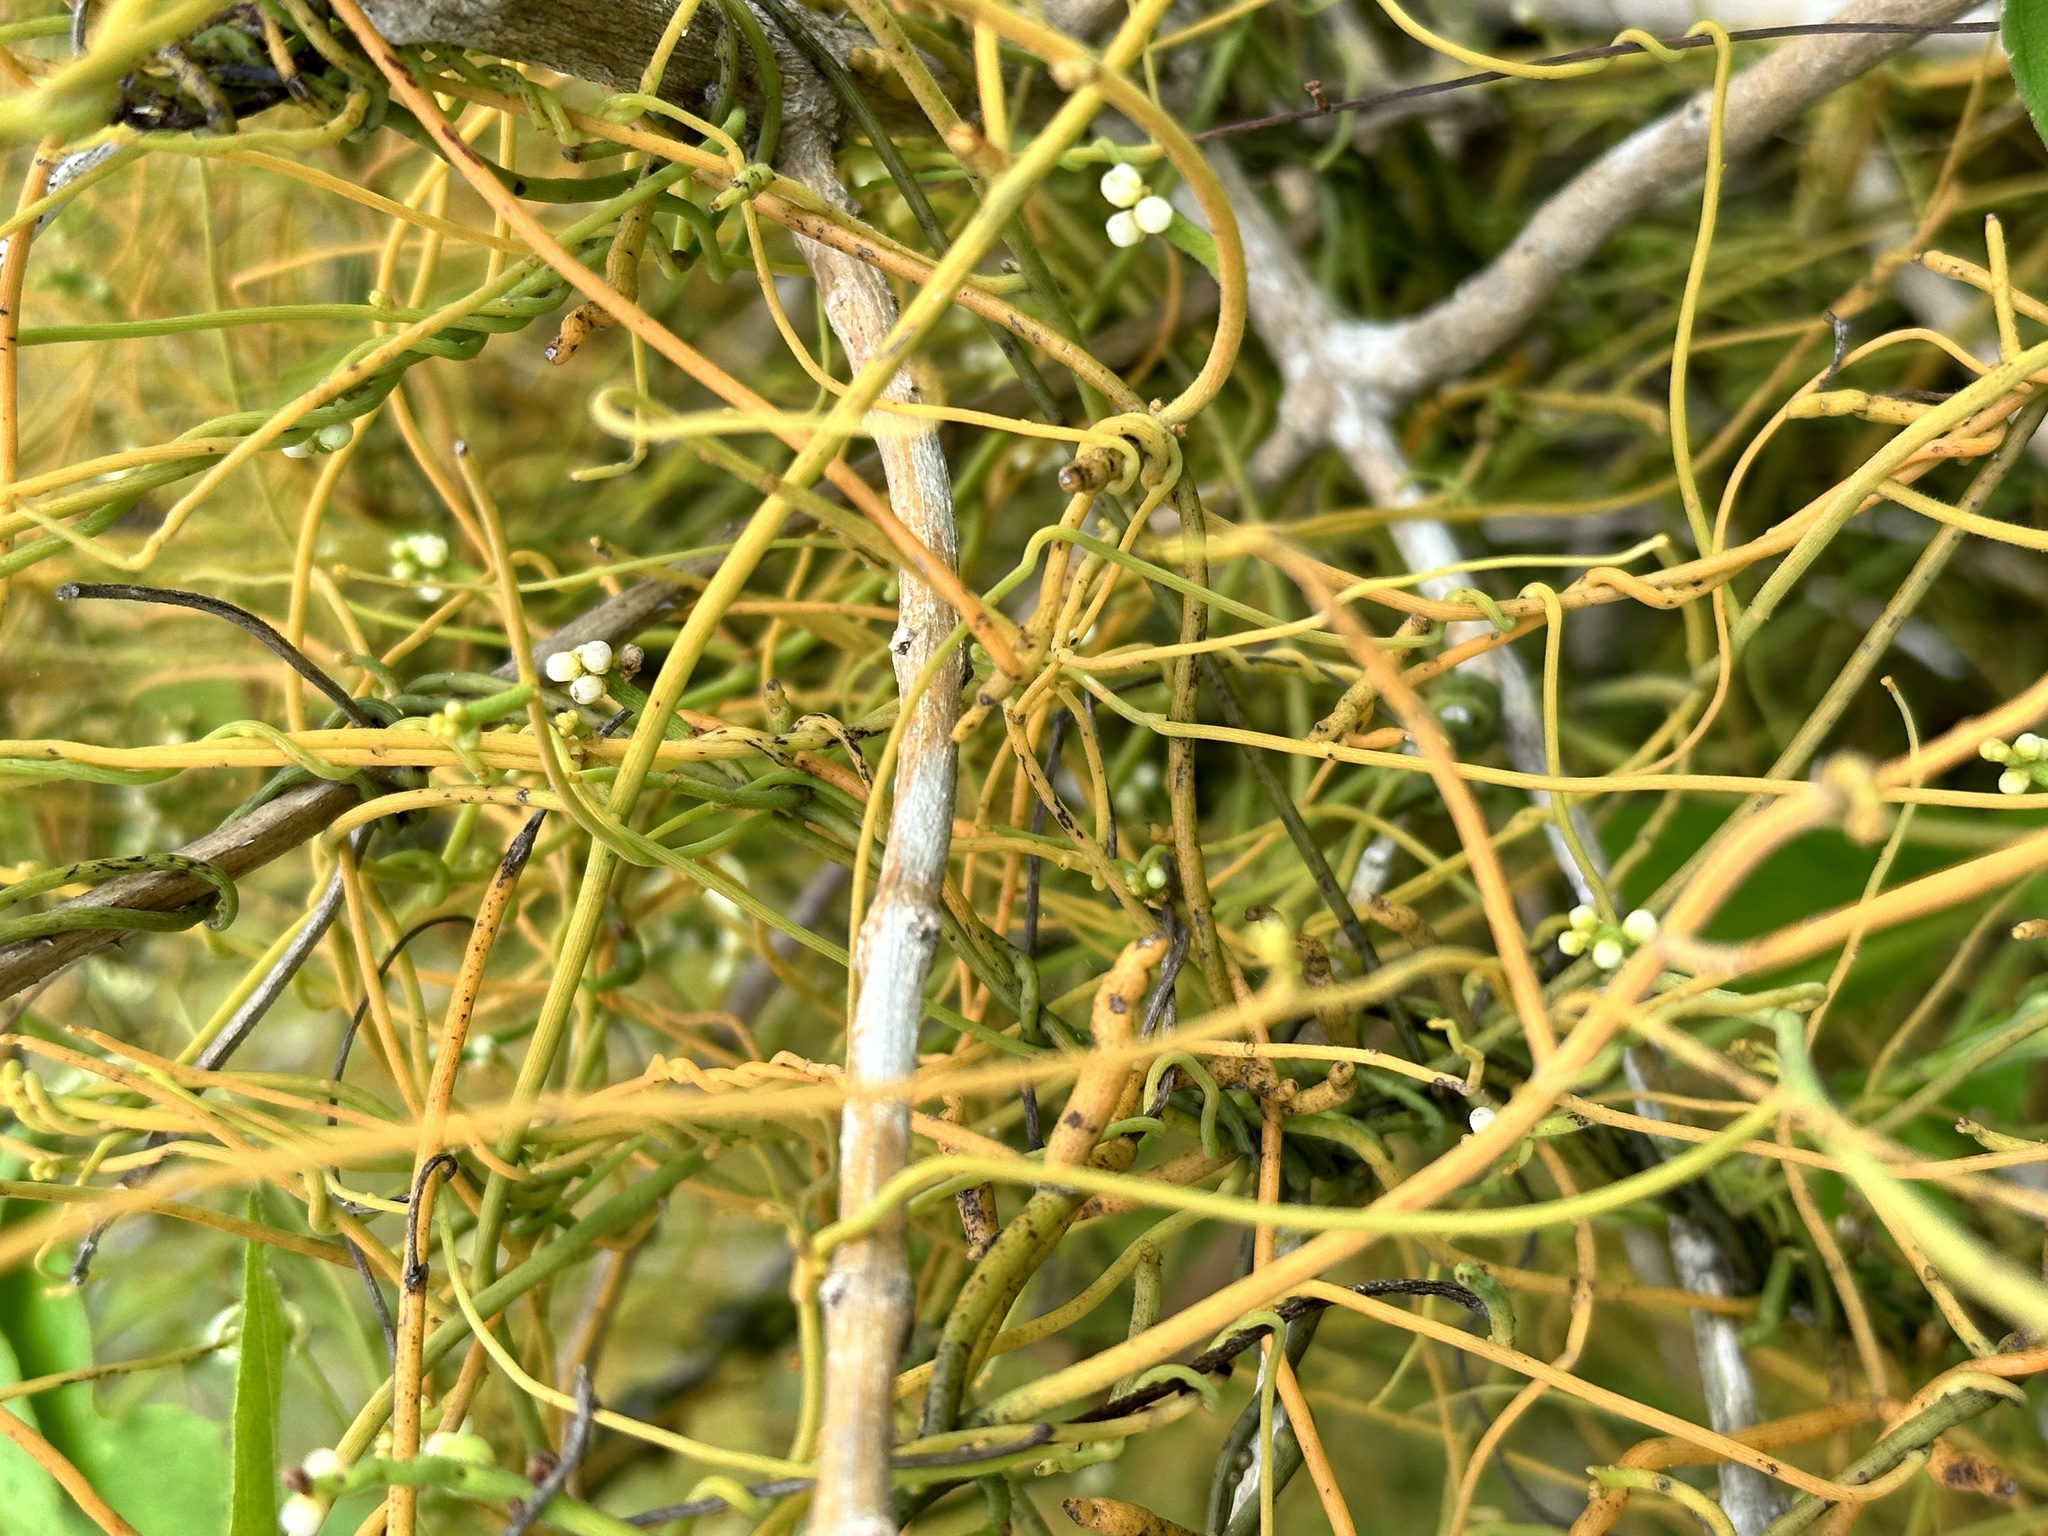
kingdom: Plantae
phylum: Tracheophyta
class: Magnoliopsida
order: Laurales
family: Lauraceae
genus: Cassytha
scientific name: Cassytha filiformis
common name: Dodder-laurel
